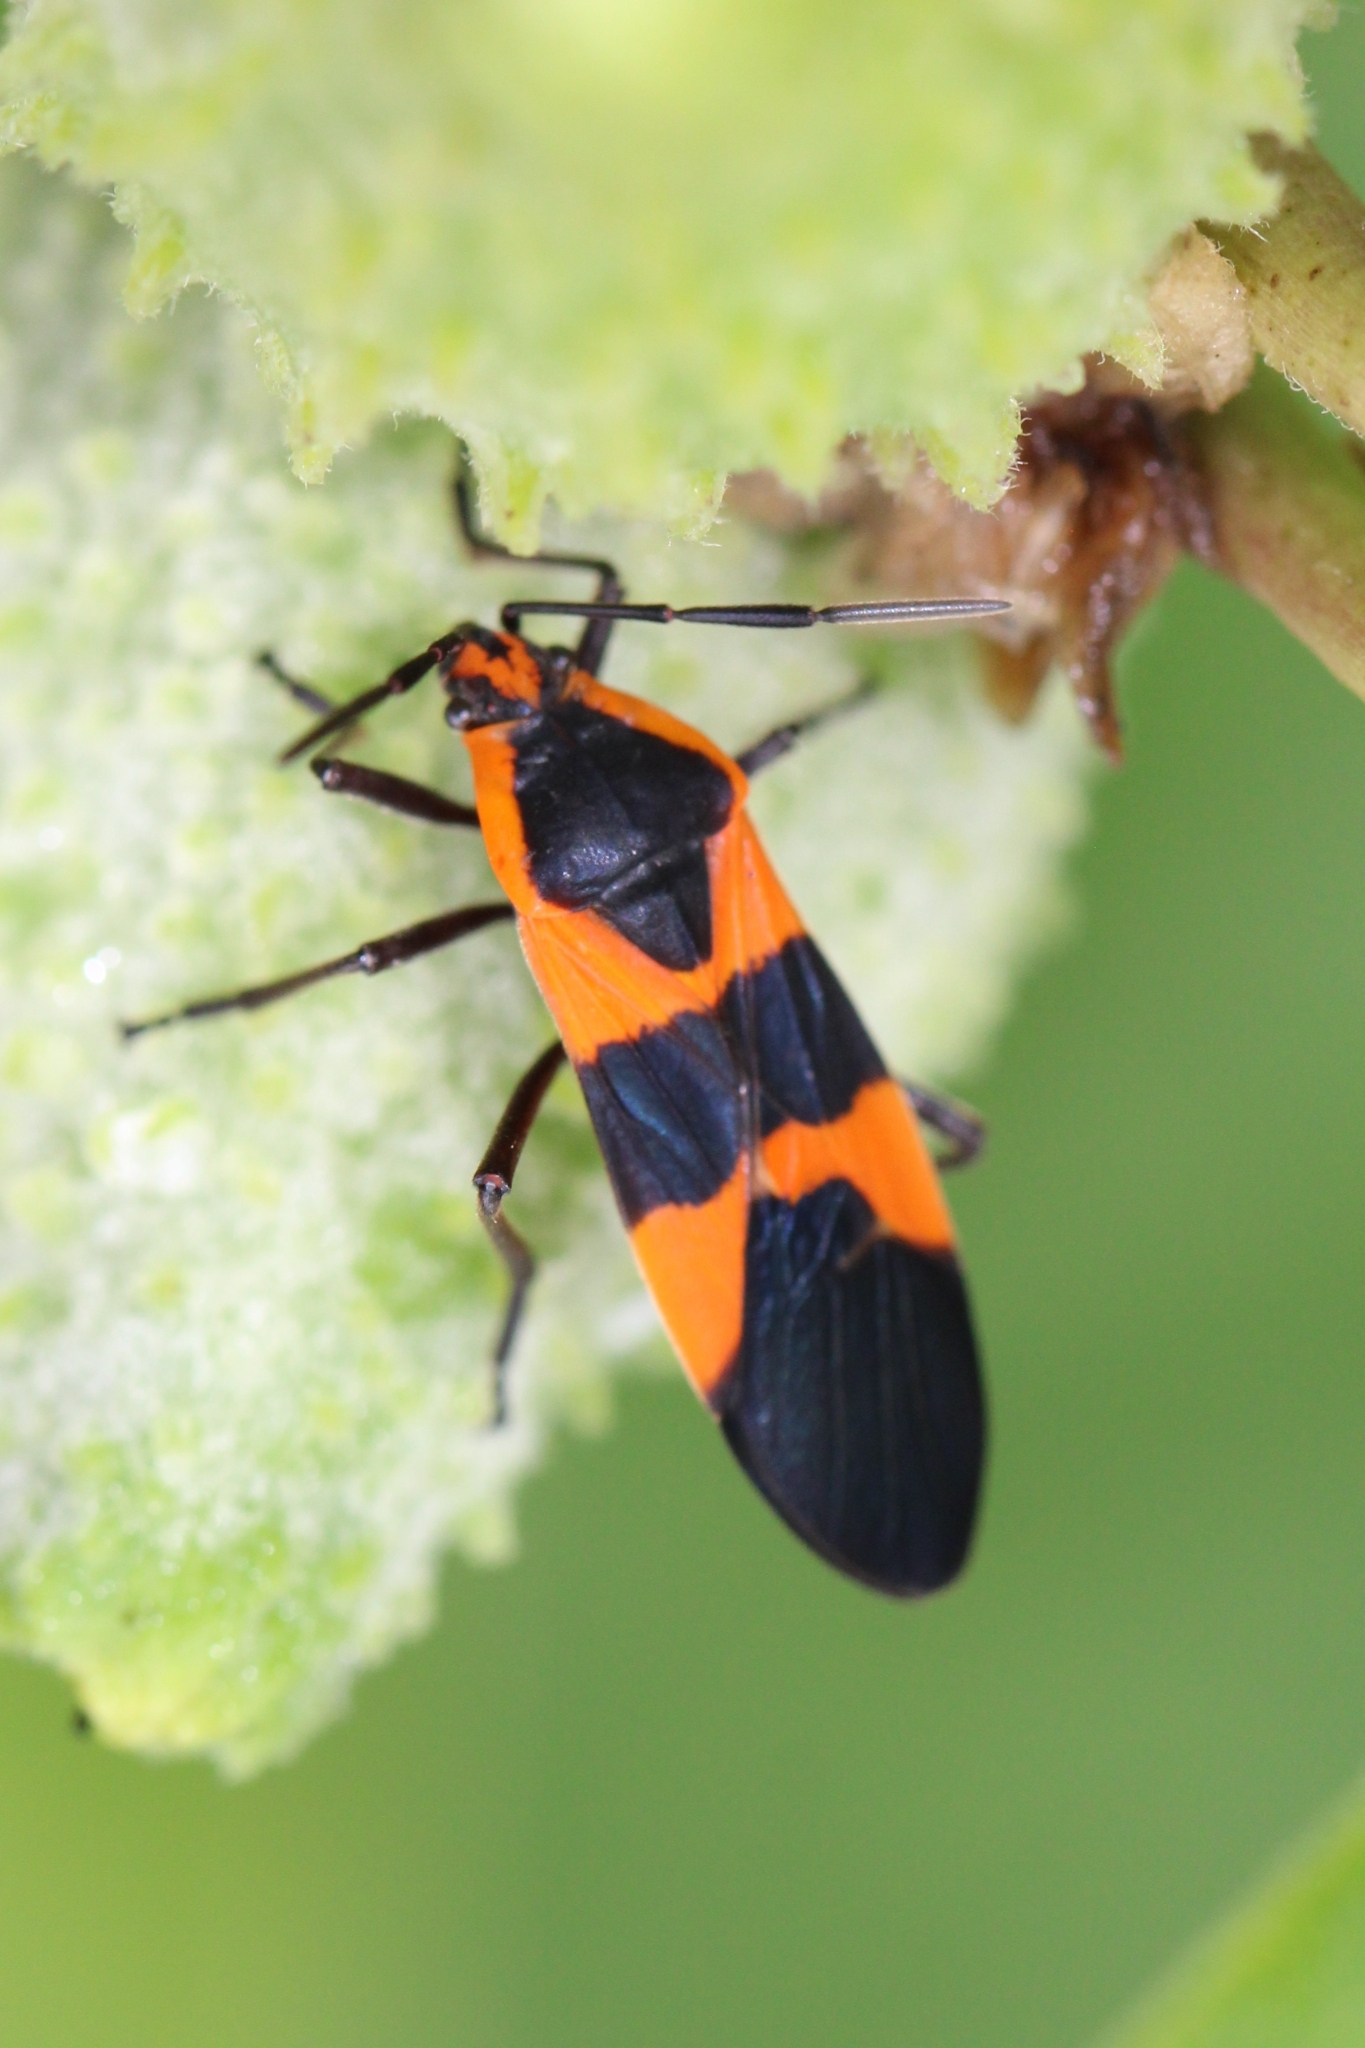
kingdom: Animalia
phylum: Arthropoda
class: Insecta
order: Hemiptera
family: Lygaeidae
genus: Oncopeltus
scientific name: Oncopeltus fasciatus
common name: Large milkweed bug
